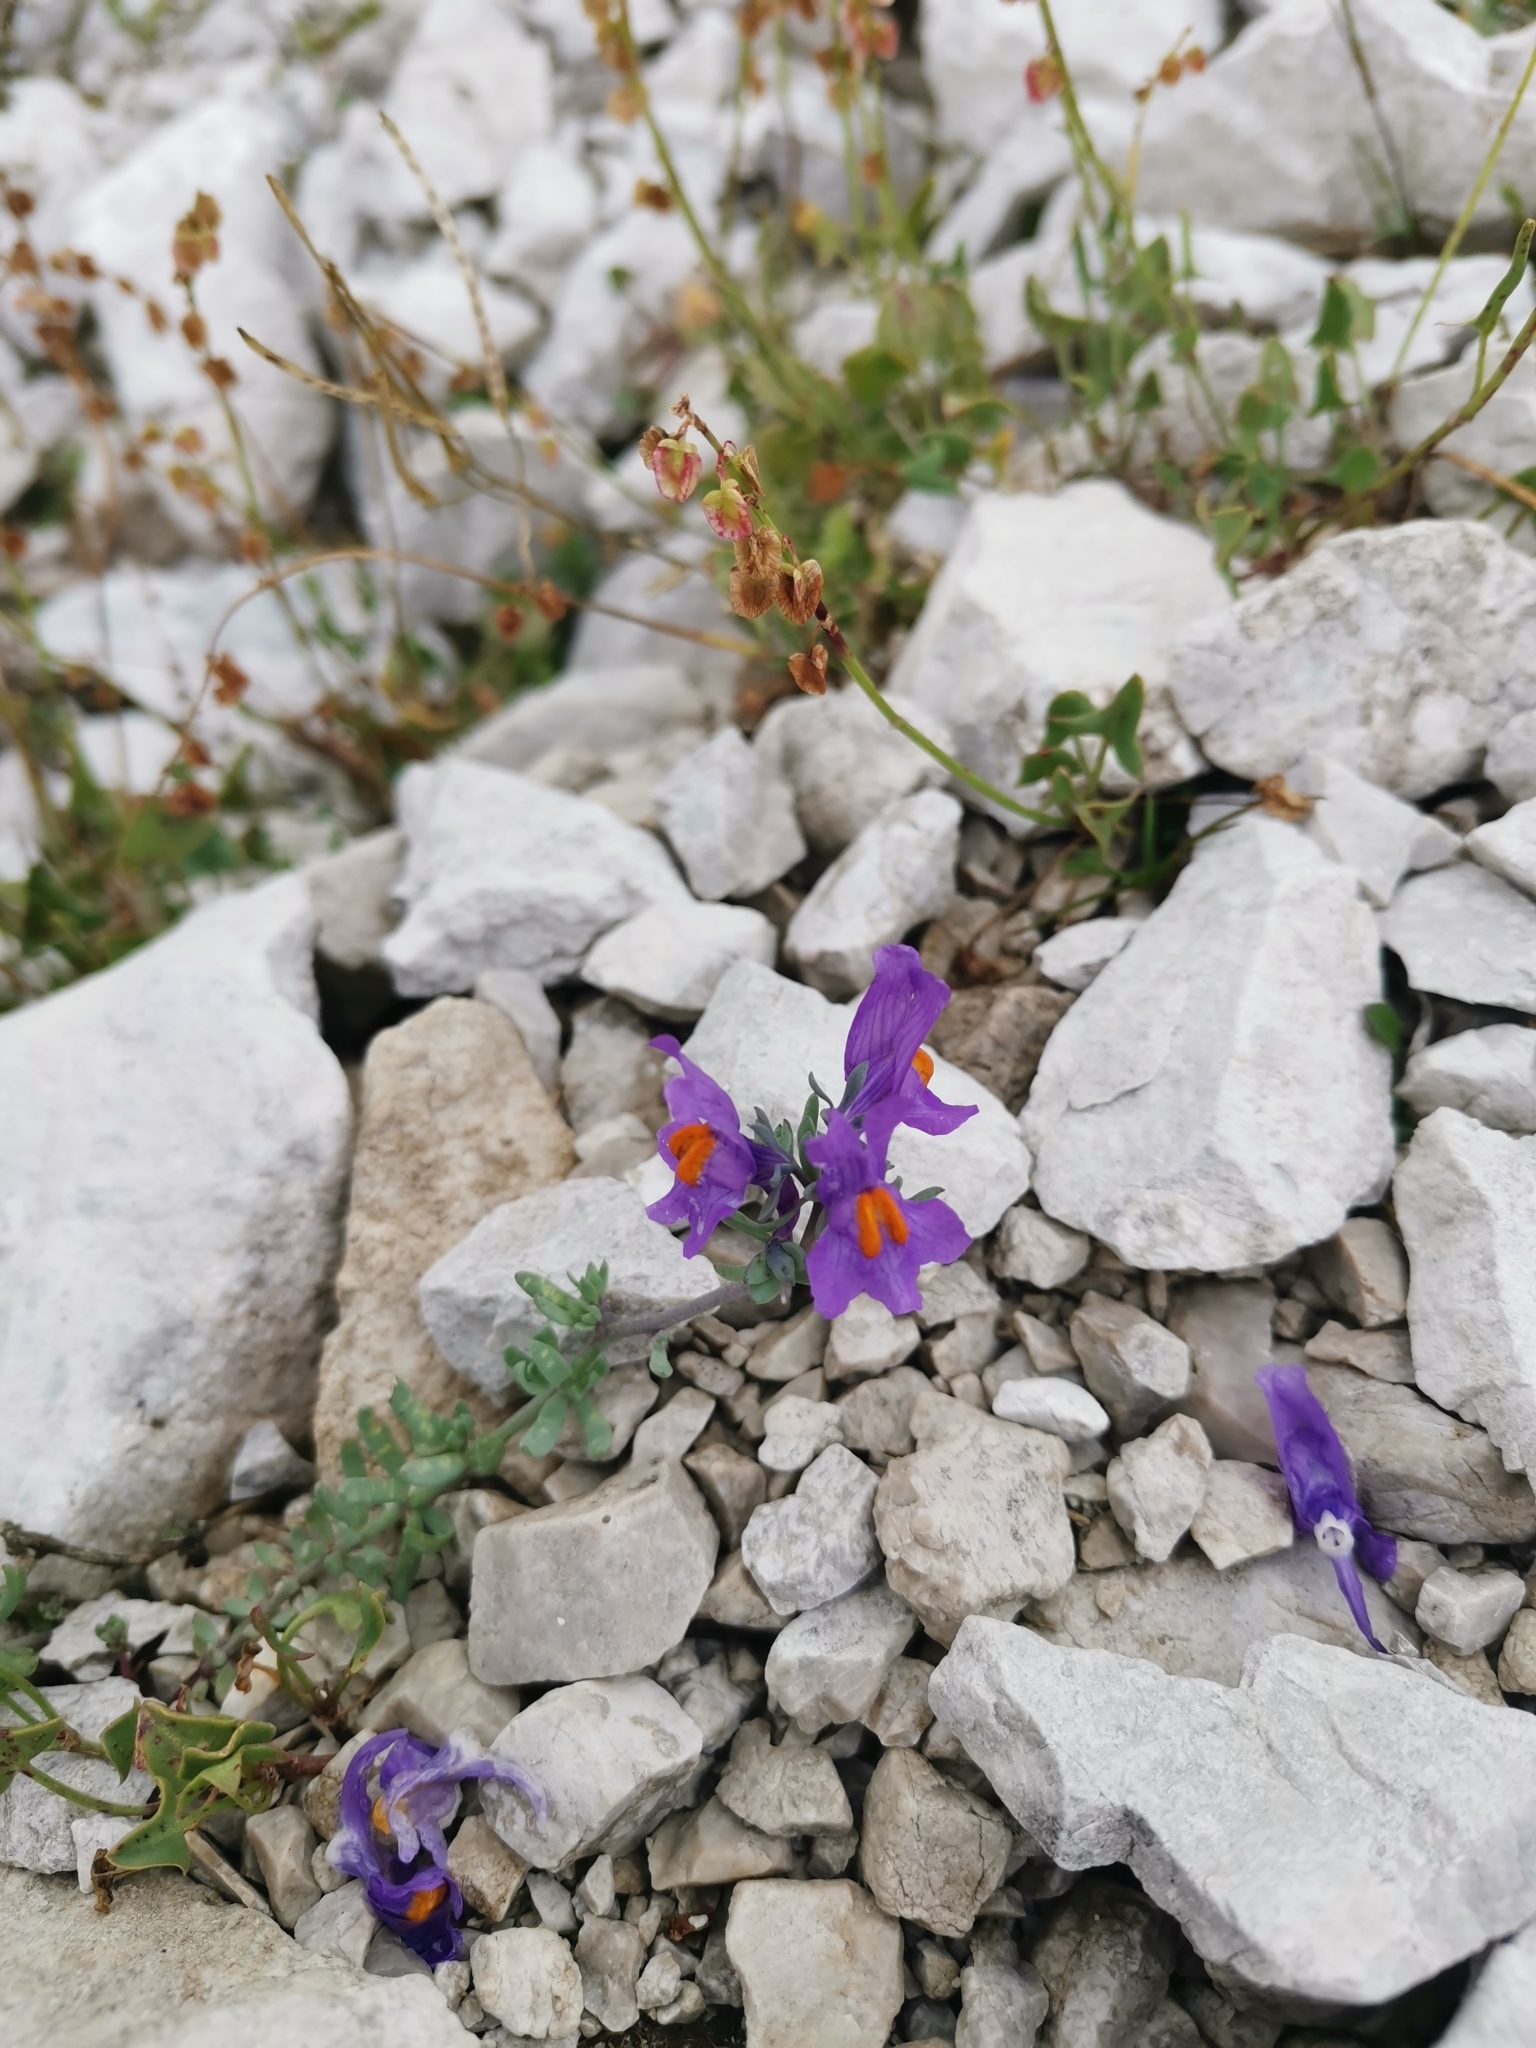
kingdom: Plantae
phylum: Tracheophyta
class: Magnoliopsida
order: Lamiales
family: Plantaginaceae
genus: Linaria
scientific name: Linaria alpina
